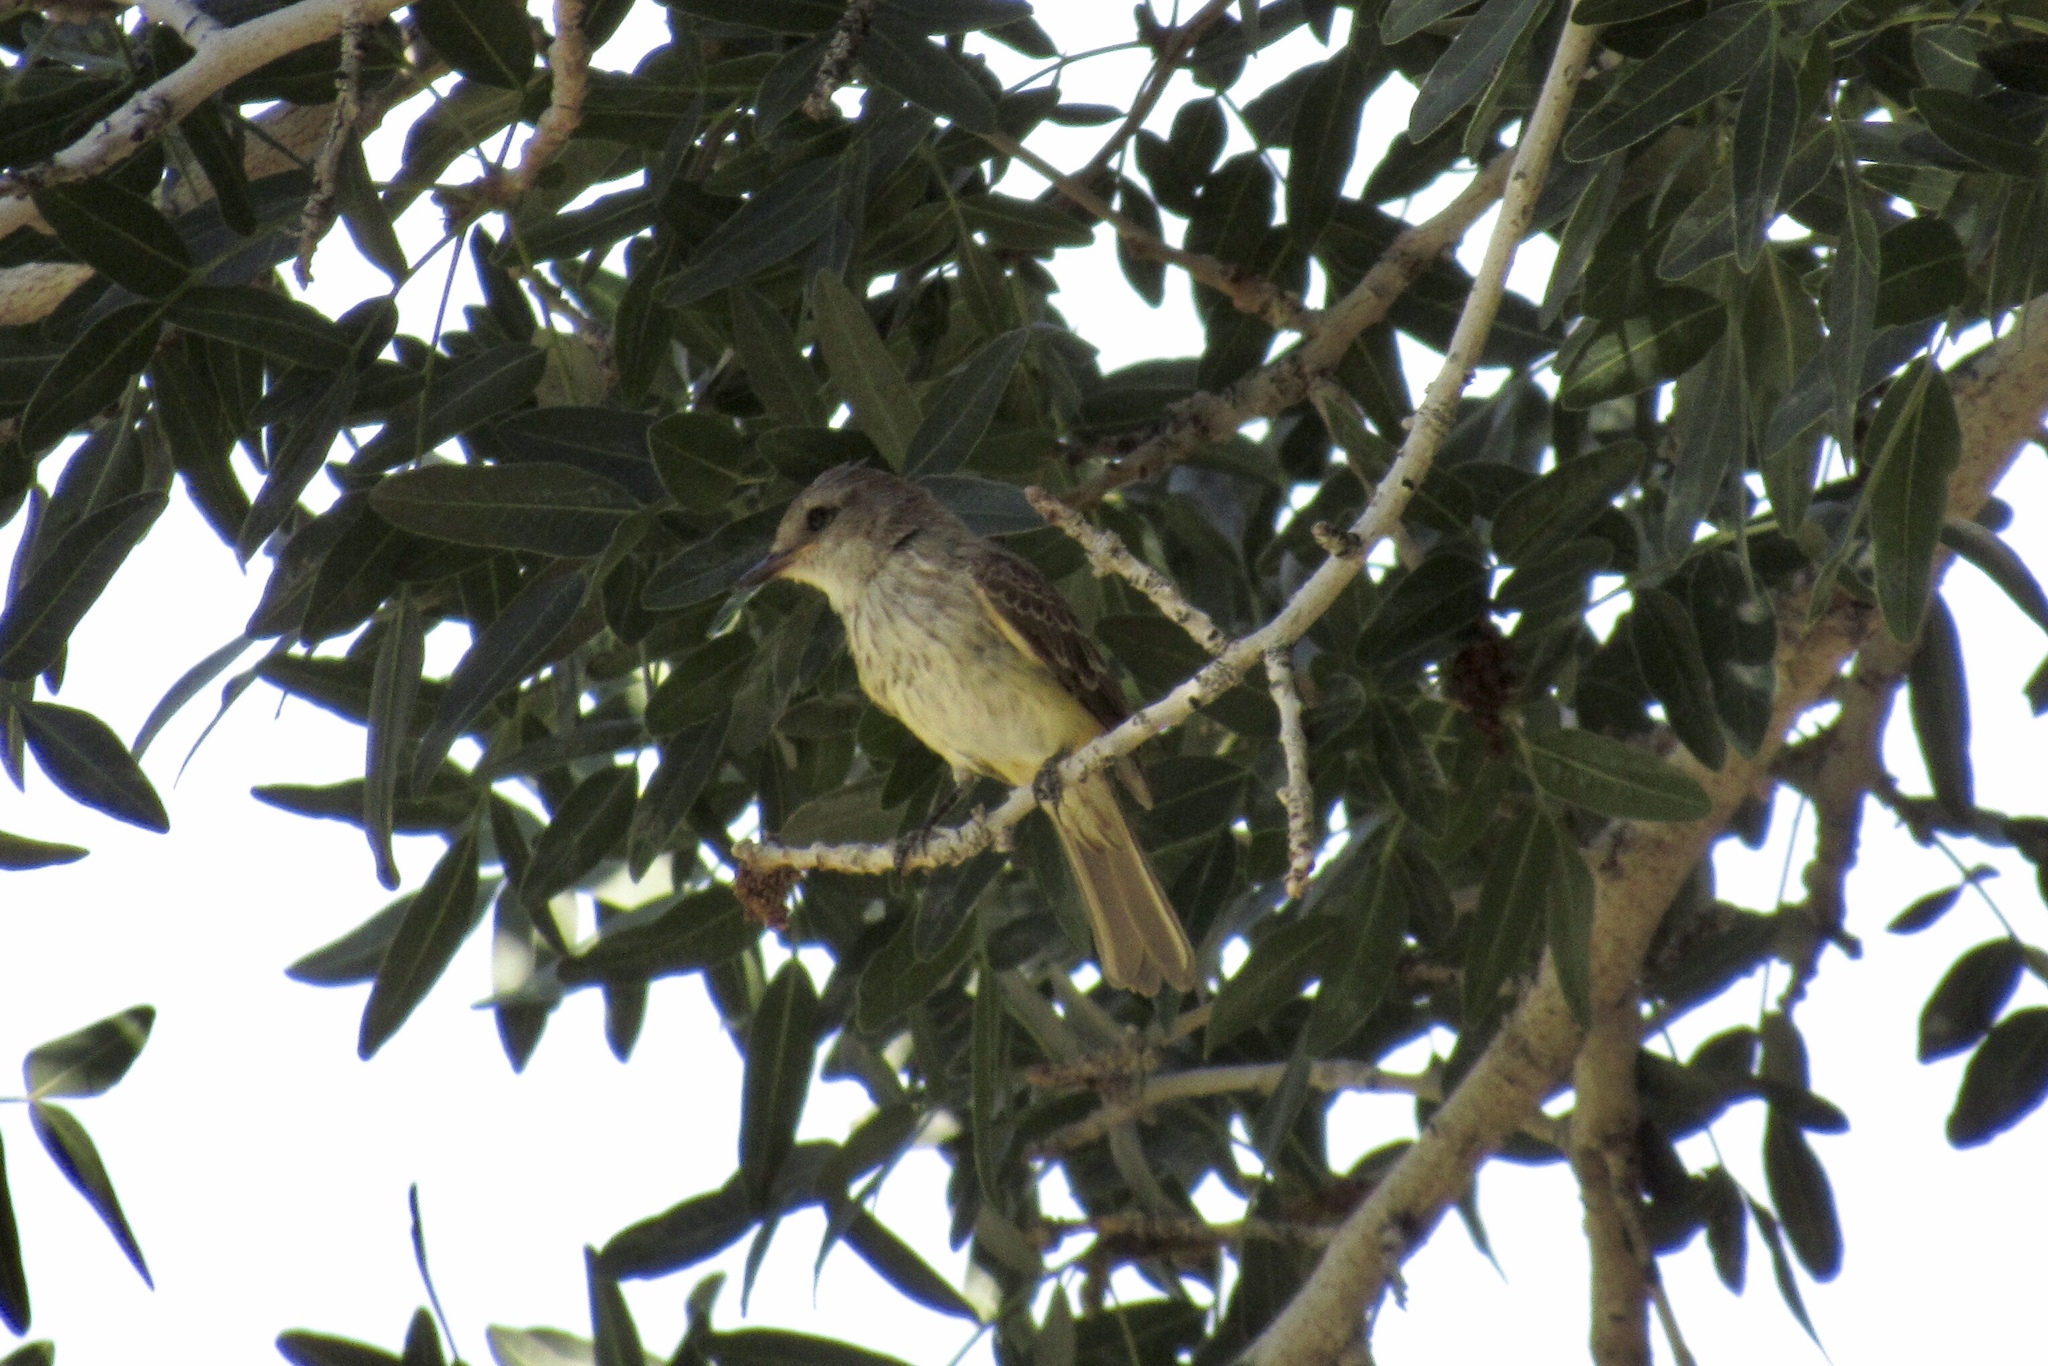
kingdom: Animalia
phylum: Chordata
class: Aves
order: Passeriformes
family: Tyrannidae
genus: Pyrocephalus
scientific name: Pyrocephalus rubinus
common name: Vermilion flycatcher
